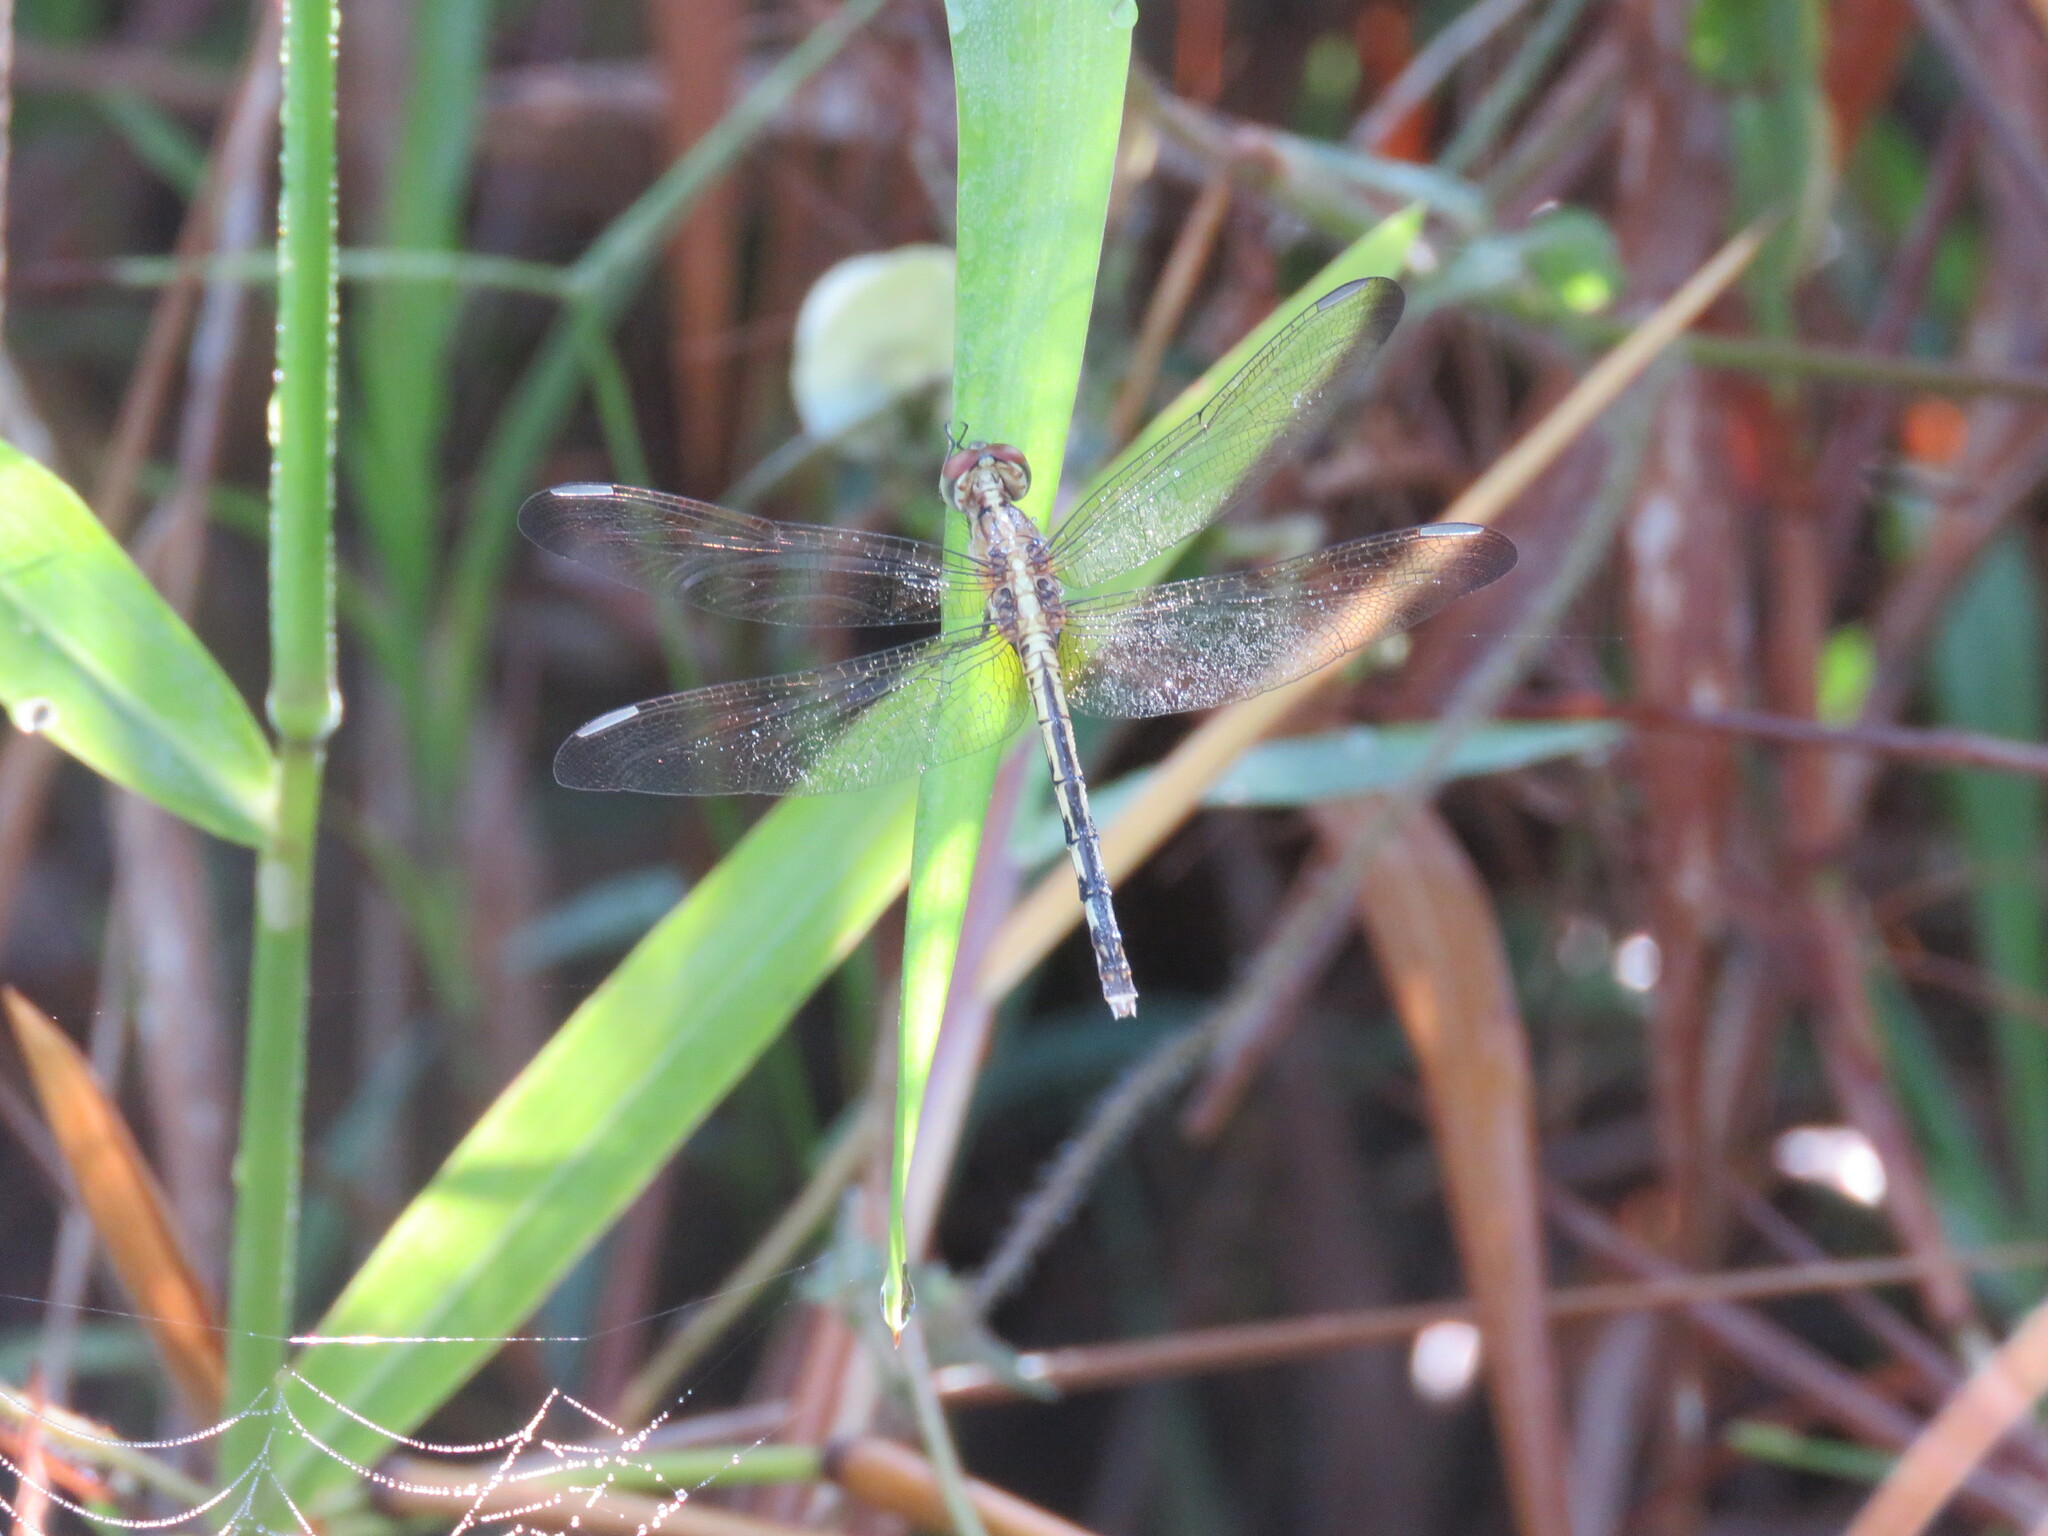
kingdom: Animalia
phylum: Arthropoda
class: Insecta
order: Odonata
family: Libellulidae
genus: Erythrodiplax
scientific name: Erythrodiplax umbrata
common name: Band-winged dragonlet
